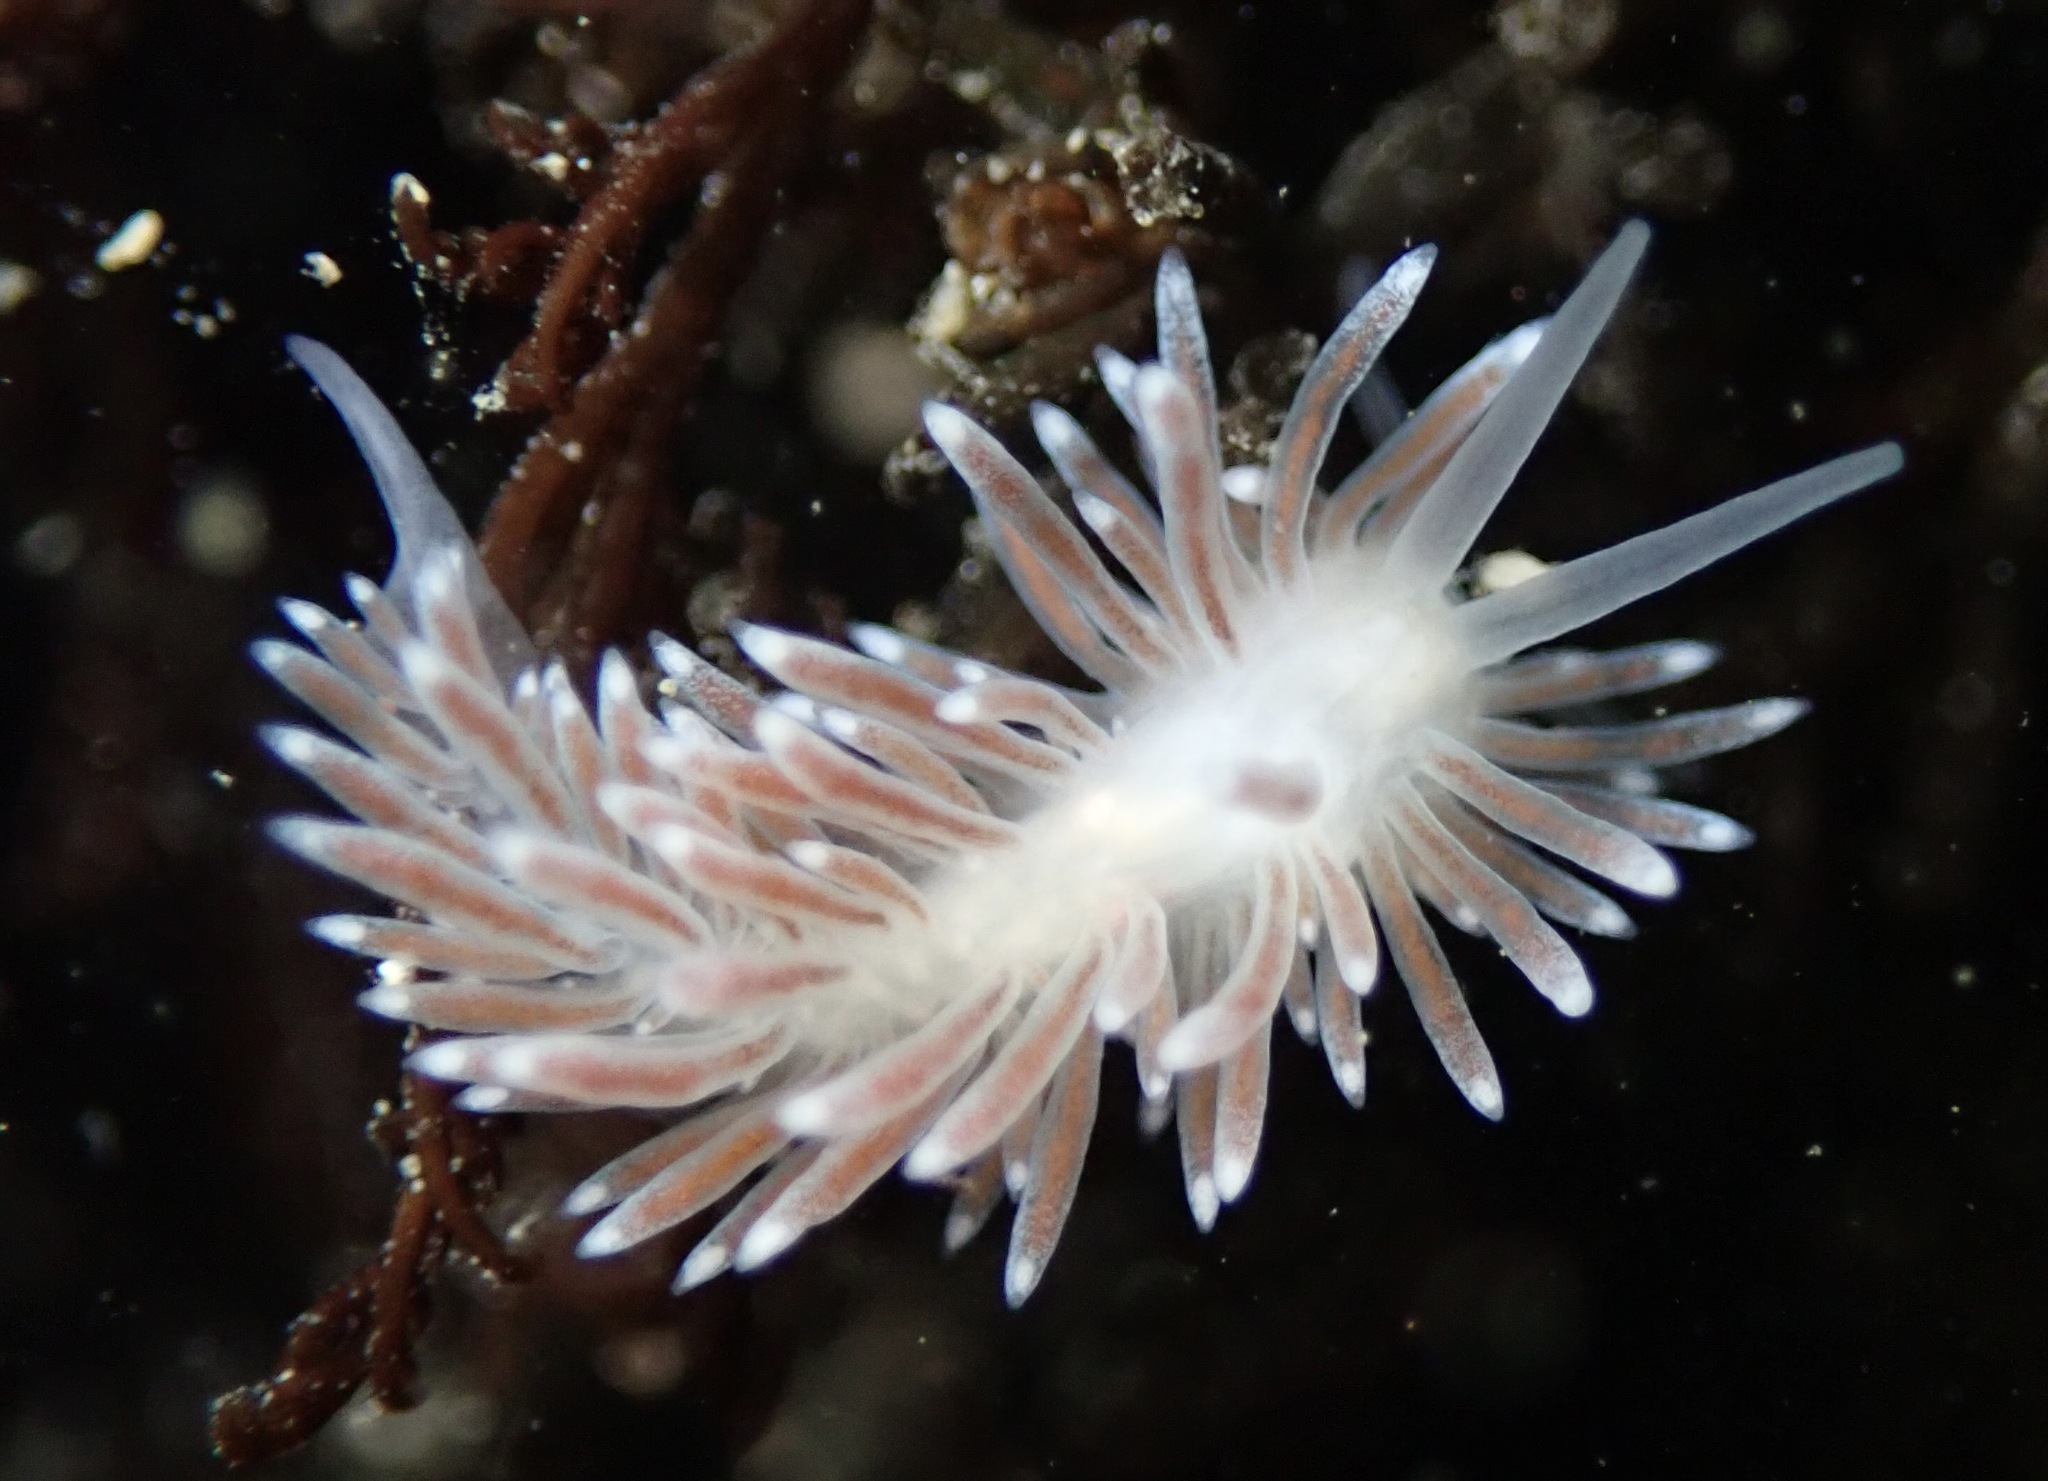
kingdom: Animalia
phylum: Mollusca
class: Gastropoda
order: Nudibranchia
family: Cuthonidae
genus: Cuthona
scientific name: Cuthona divae
